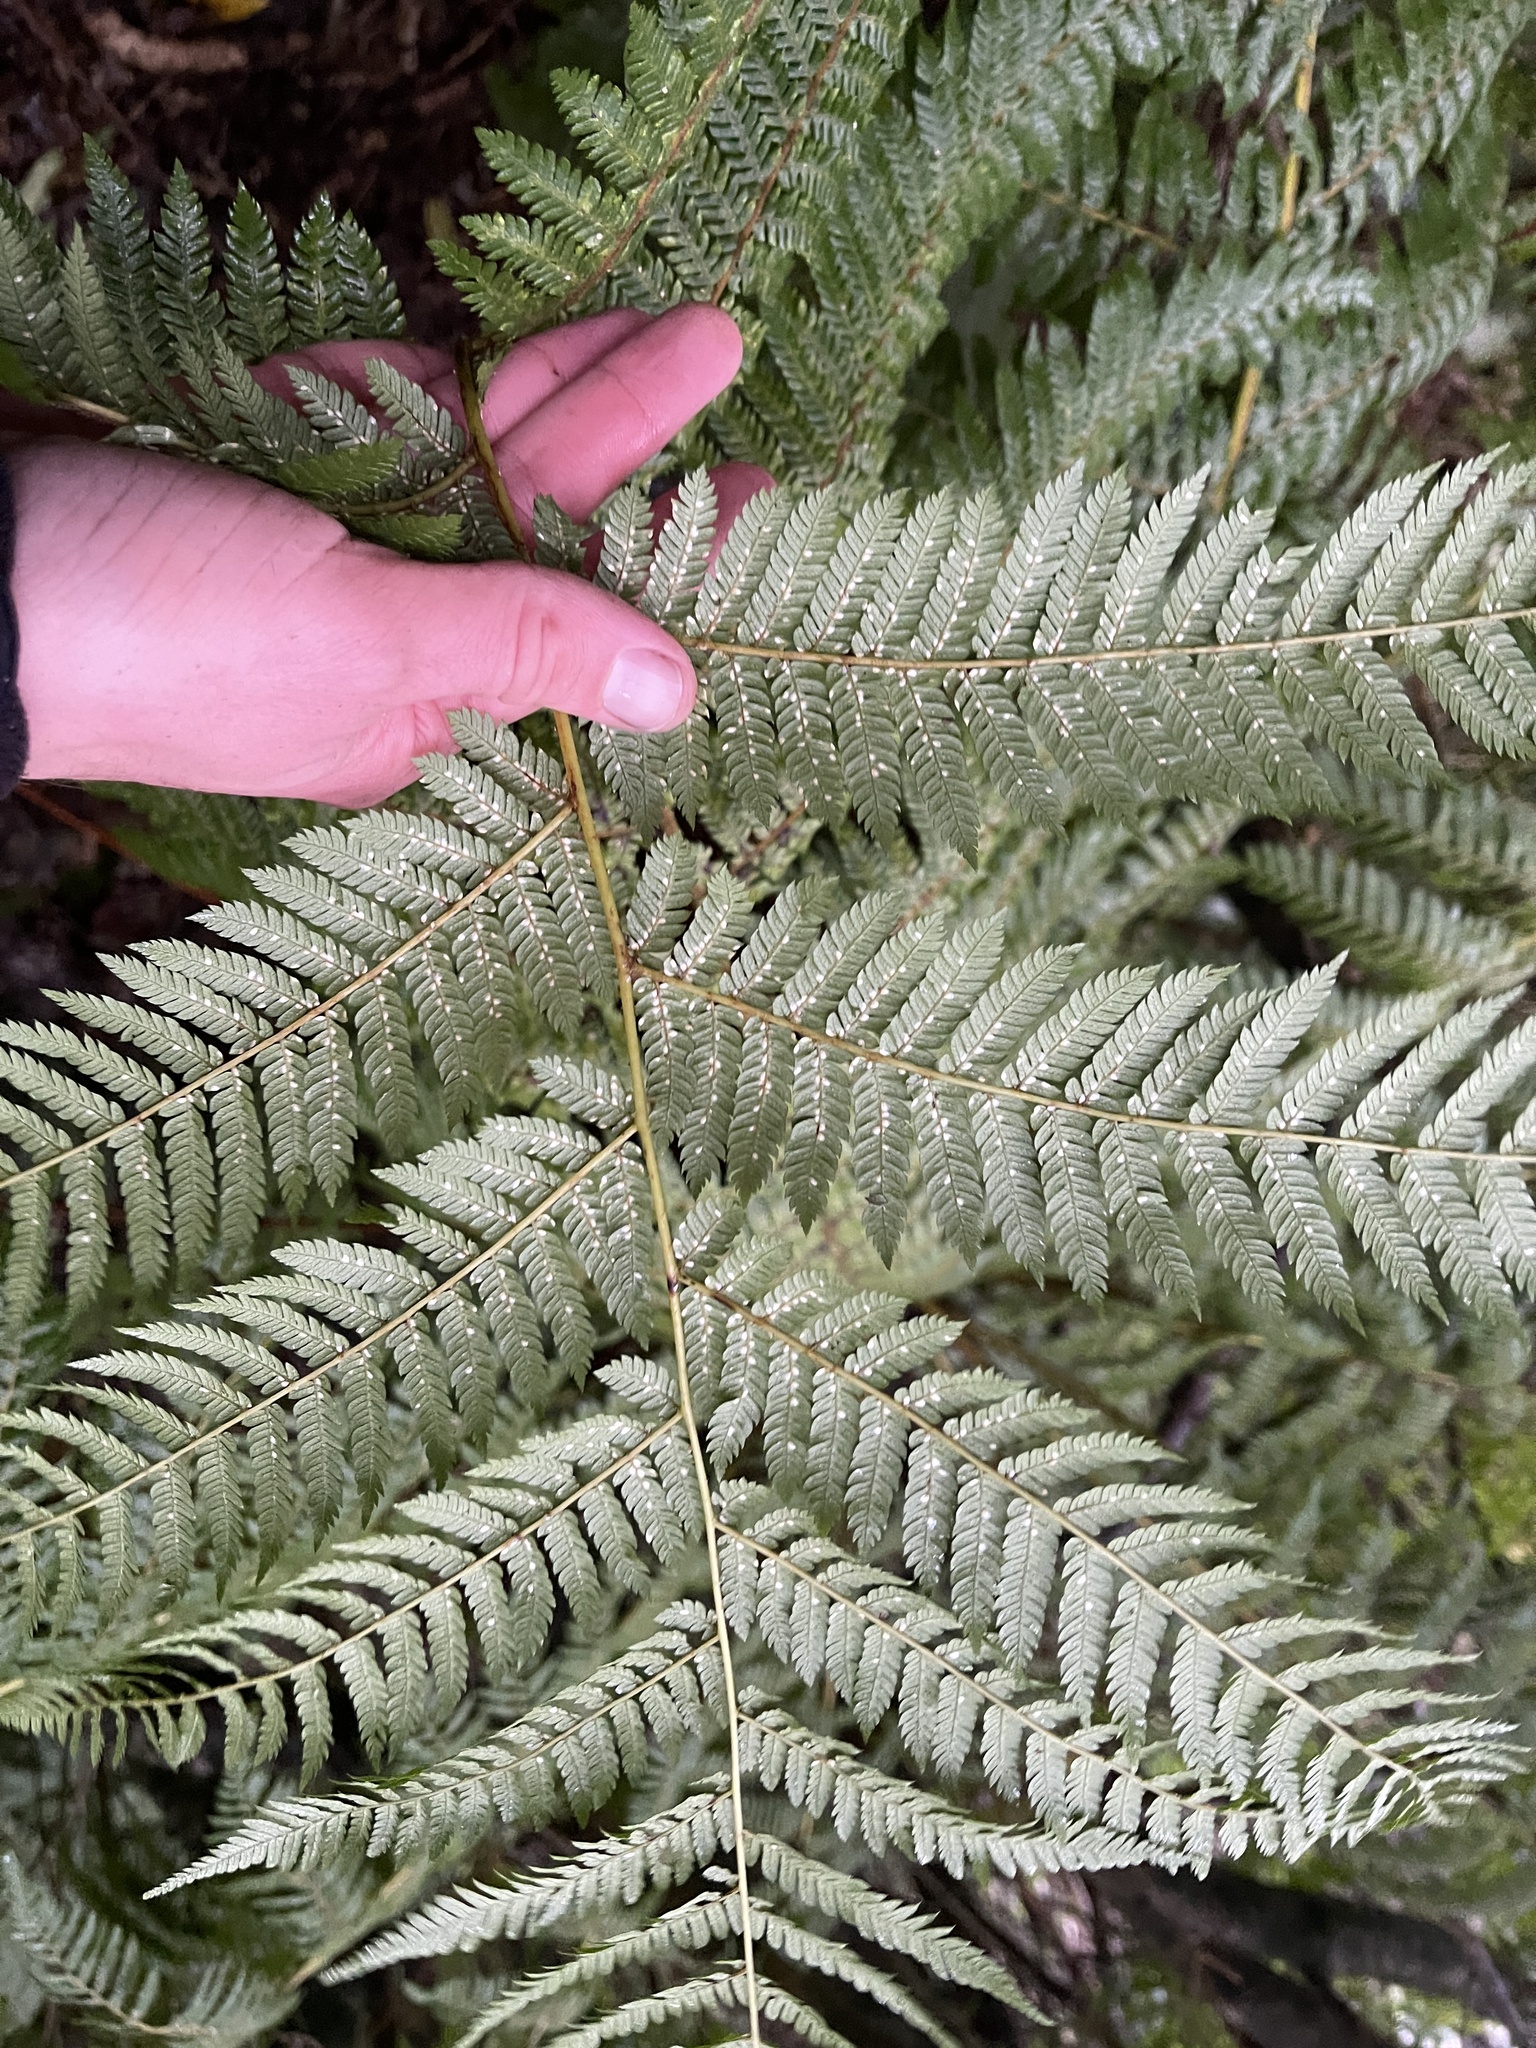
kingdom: Plantae
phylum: Tracheophyta
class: Polypodiopsida
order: Cyatheales
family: Cyatheaceae
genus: Alsophila
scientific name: Alsophila smithii
